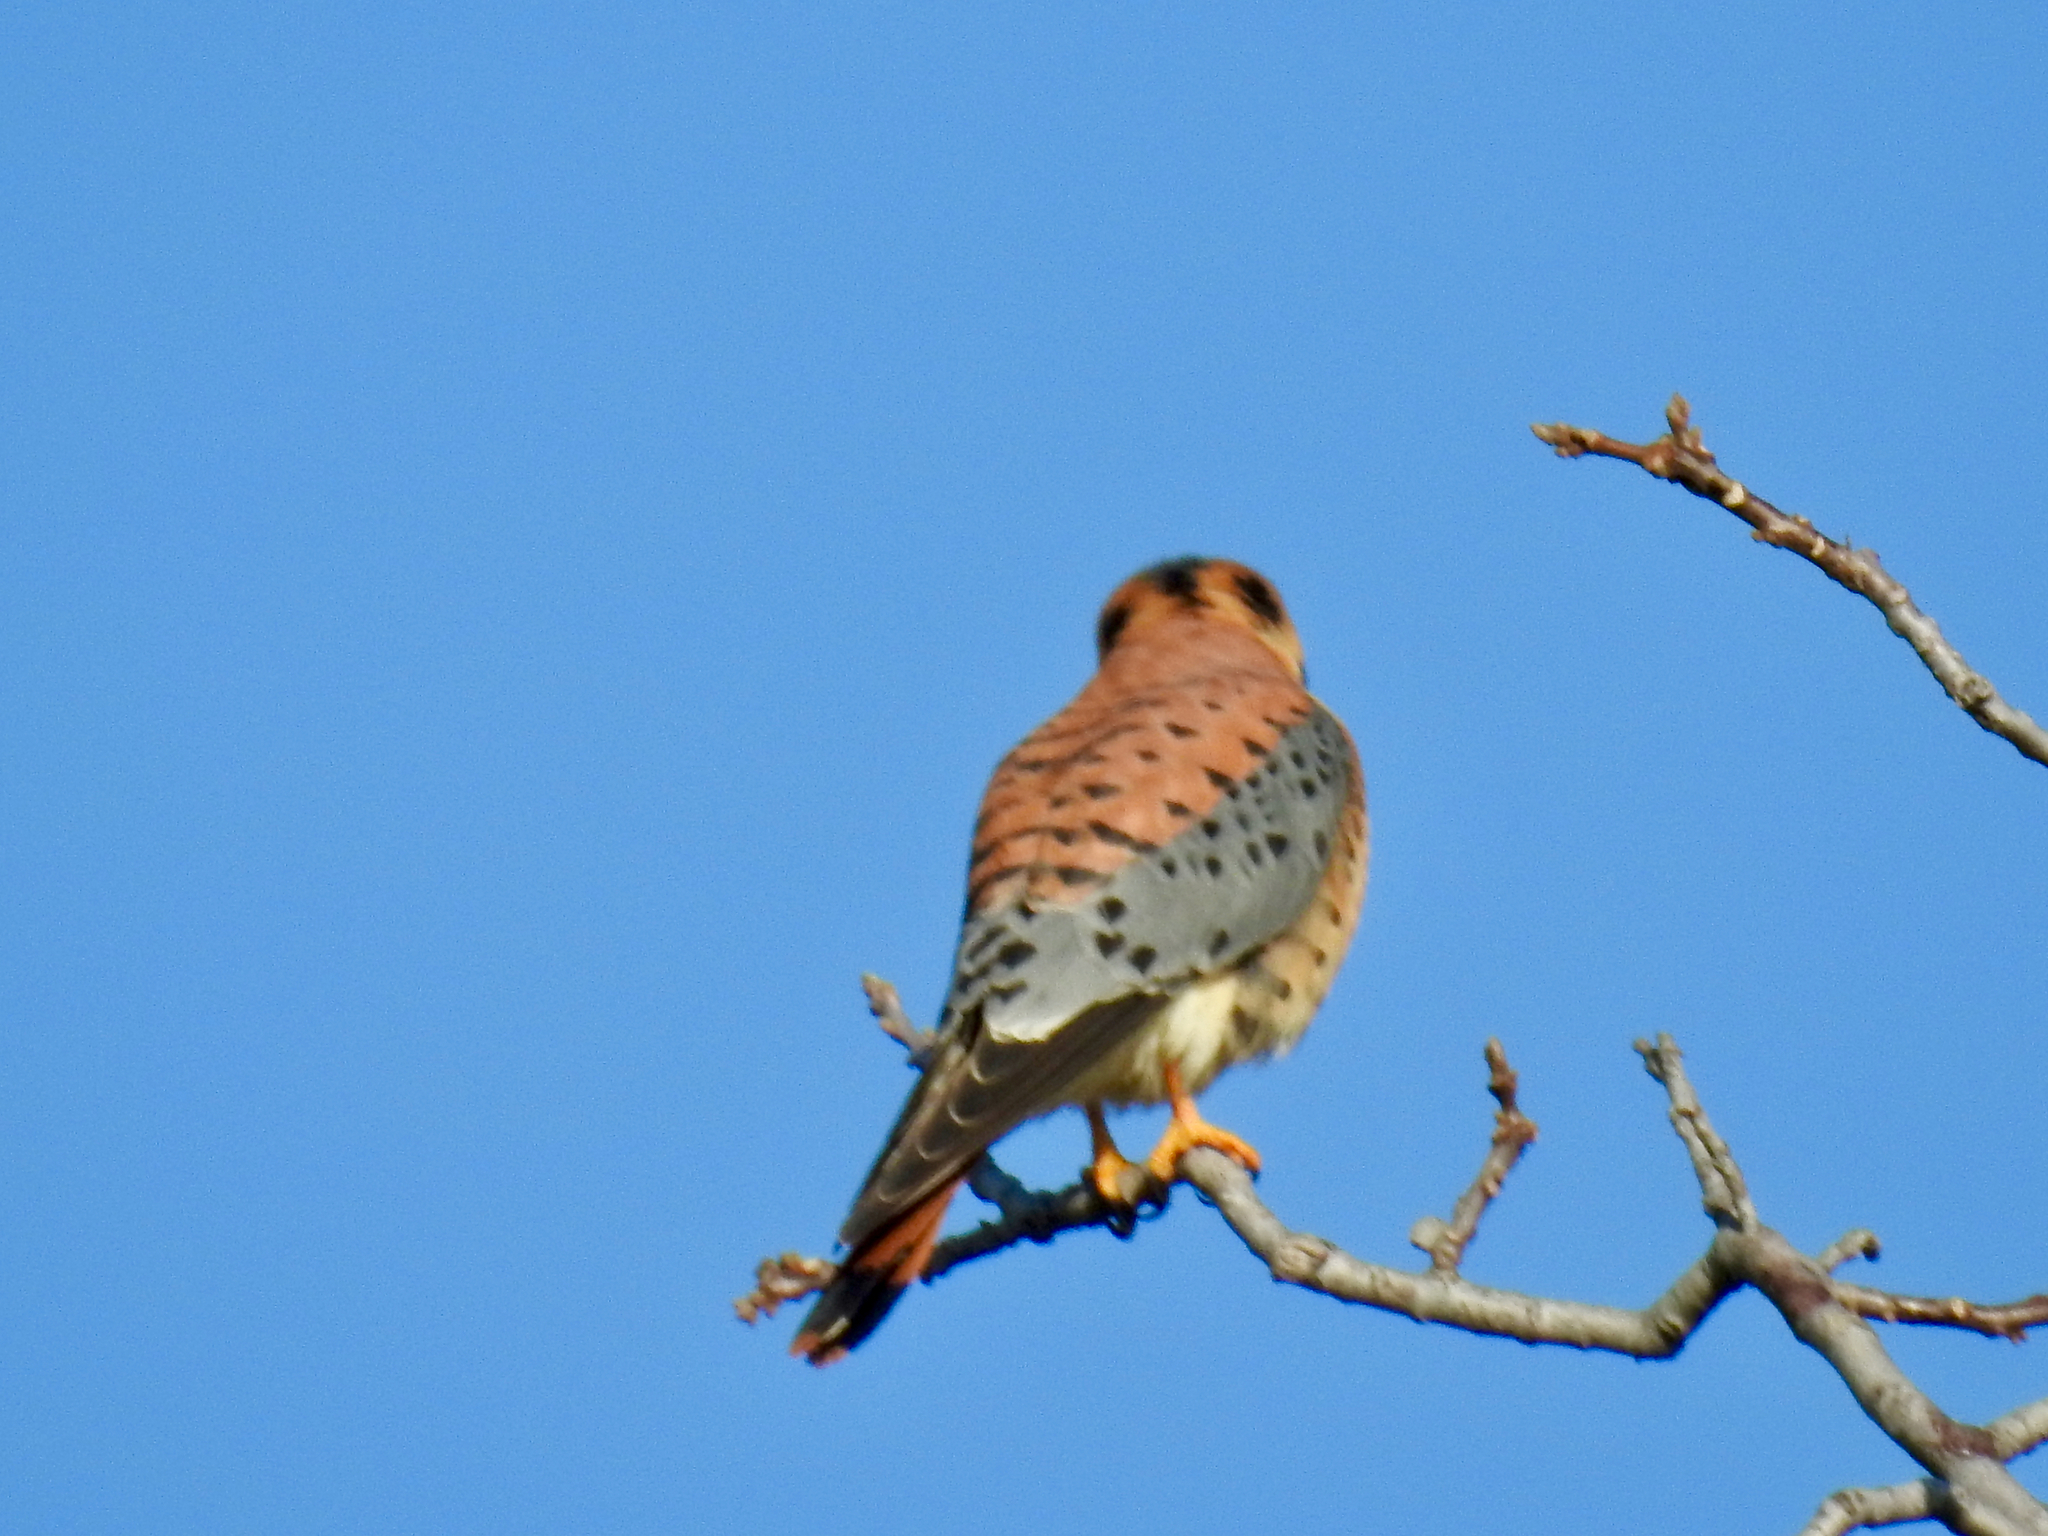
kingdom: Animalia
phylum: Chordata
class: Aves
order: Falconiformes
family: Falconidae
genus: Falco
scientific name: Falco sparverius
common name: American kestrel
